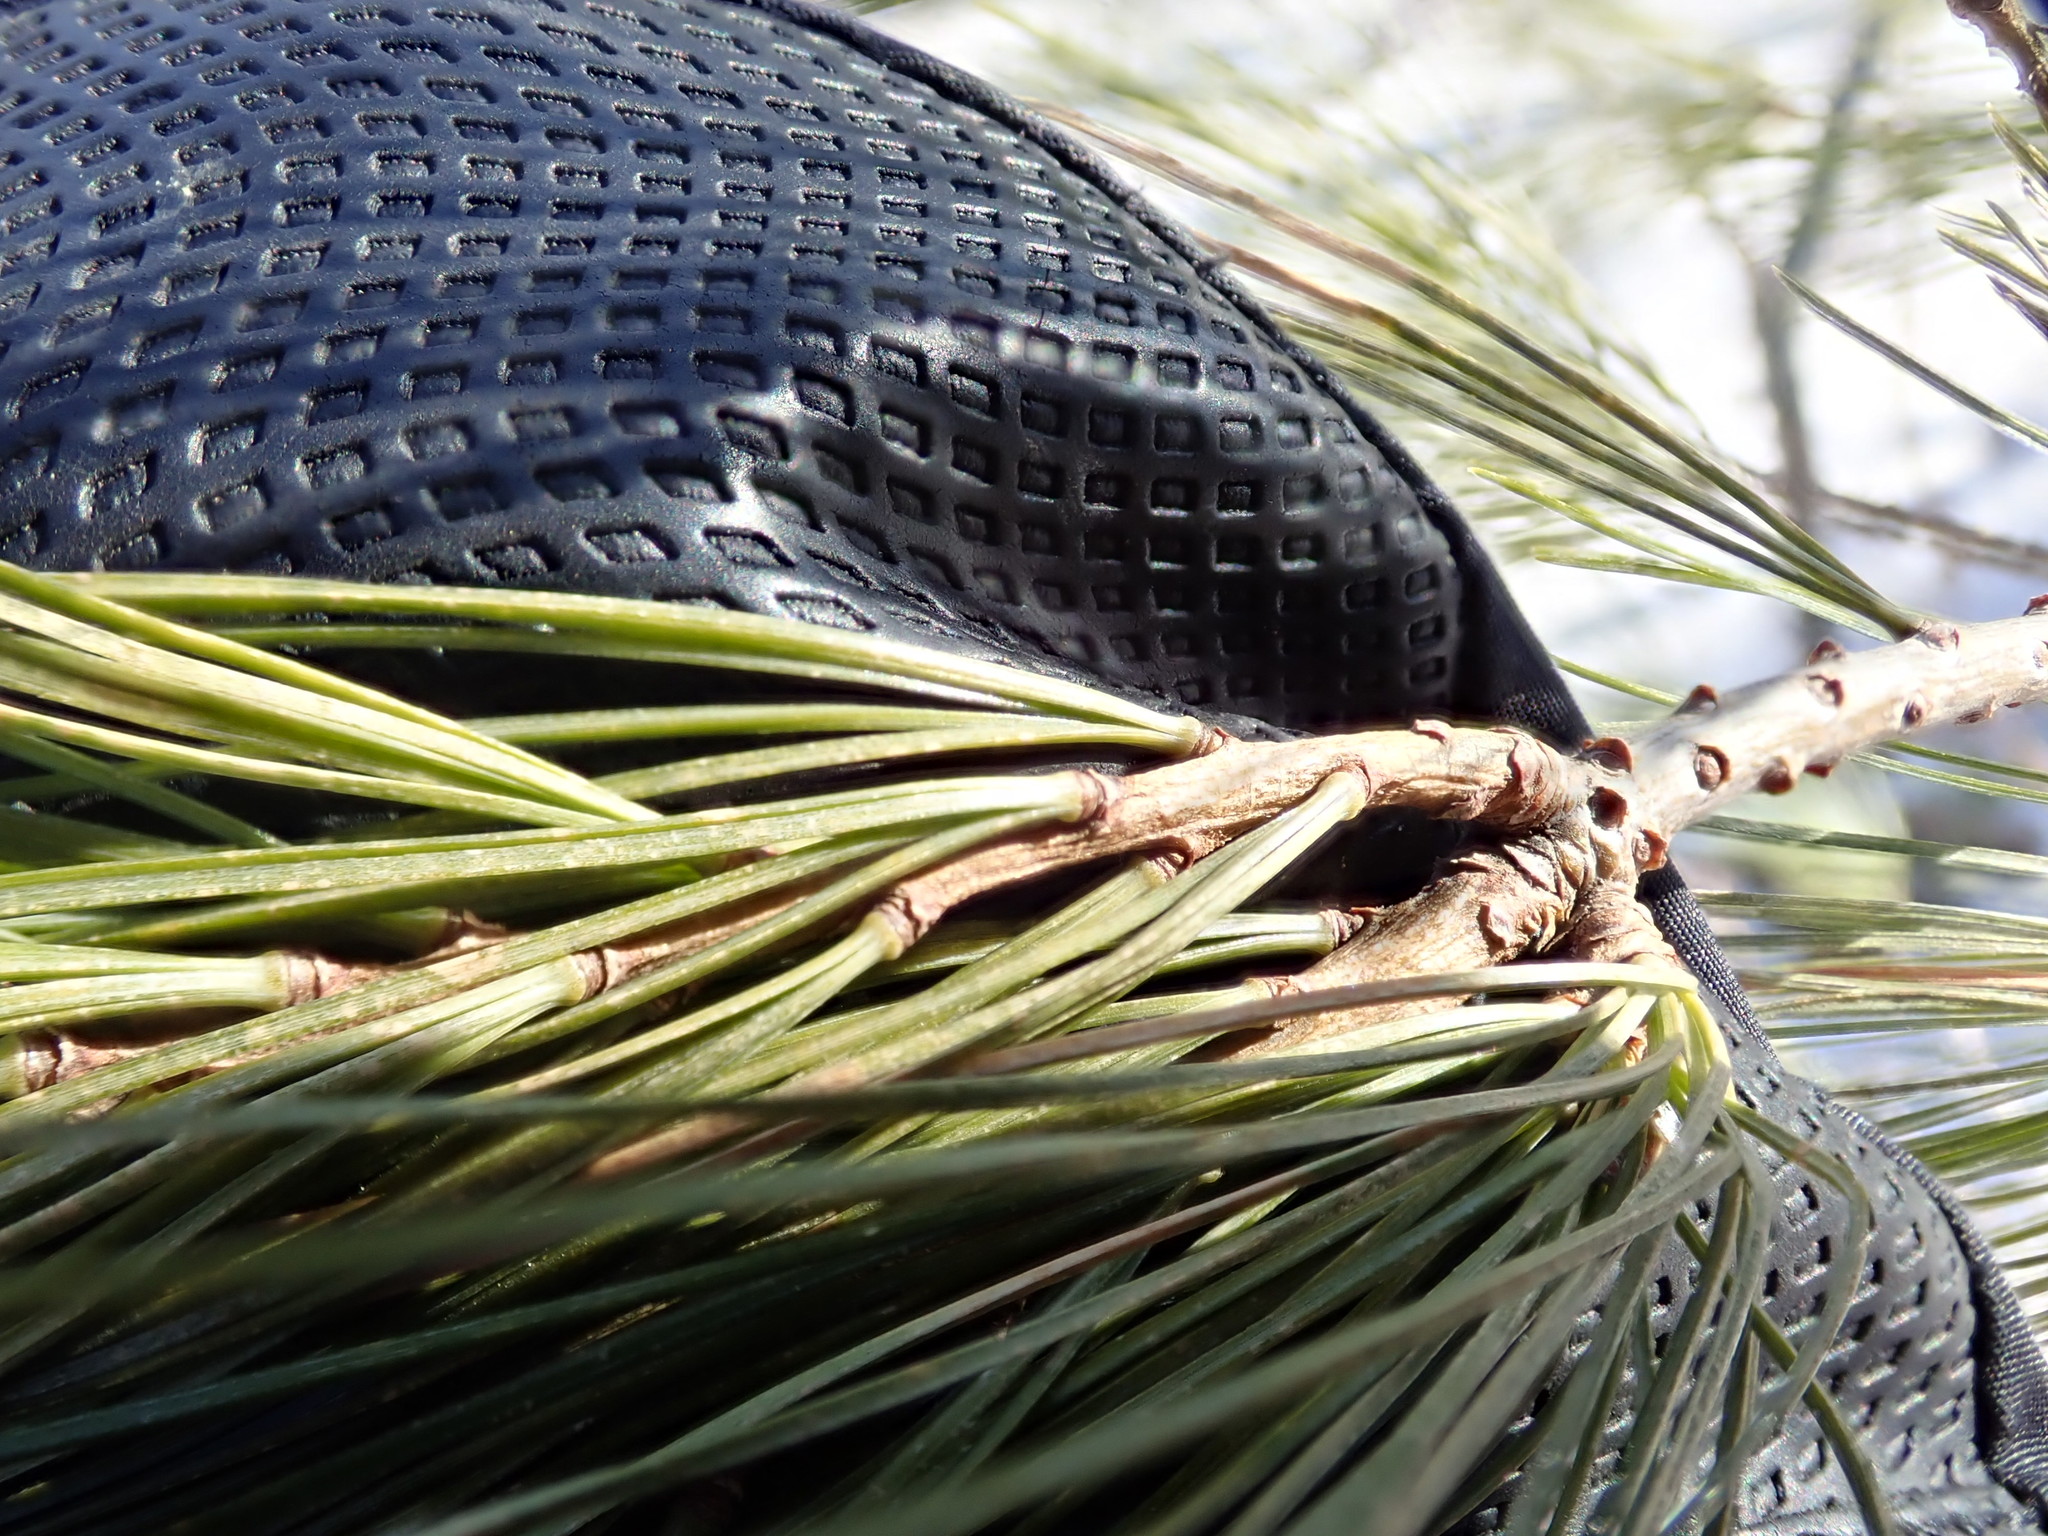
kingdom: Plantae
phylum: Tracheophyta
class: Pinopsida
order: Pinales
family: Pinaceae
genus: Pinus
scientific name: Pinus strobus
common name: Weymouth pine
